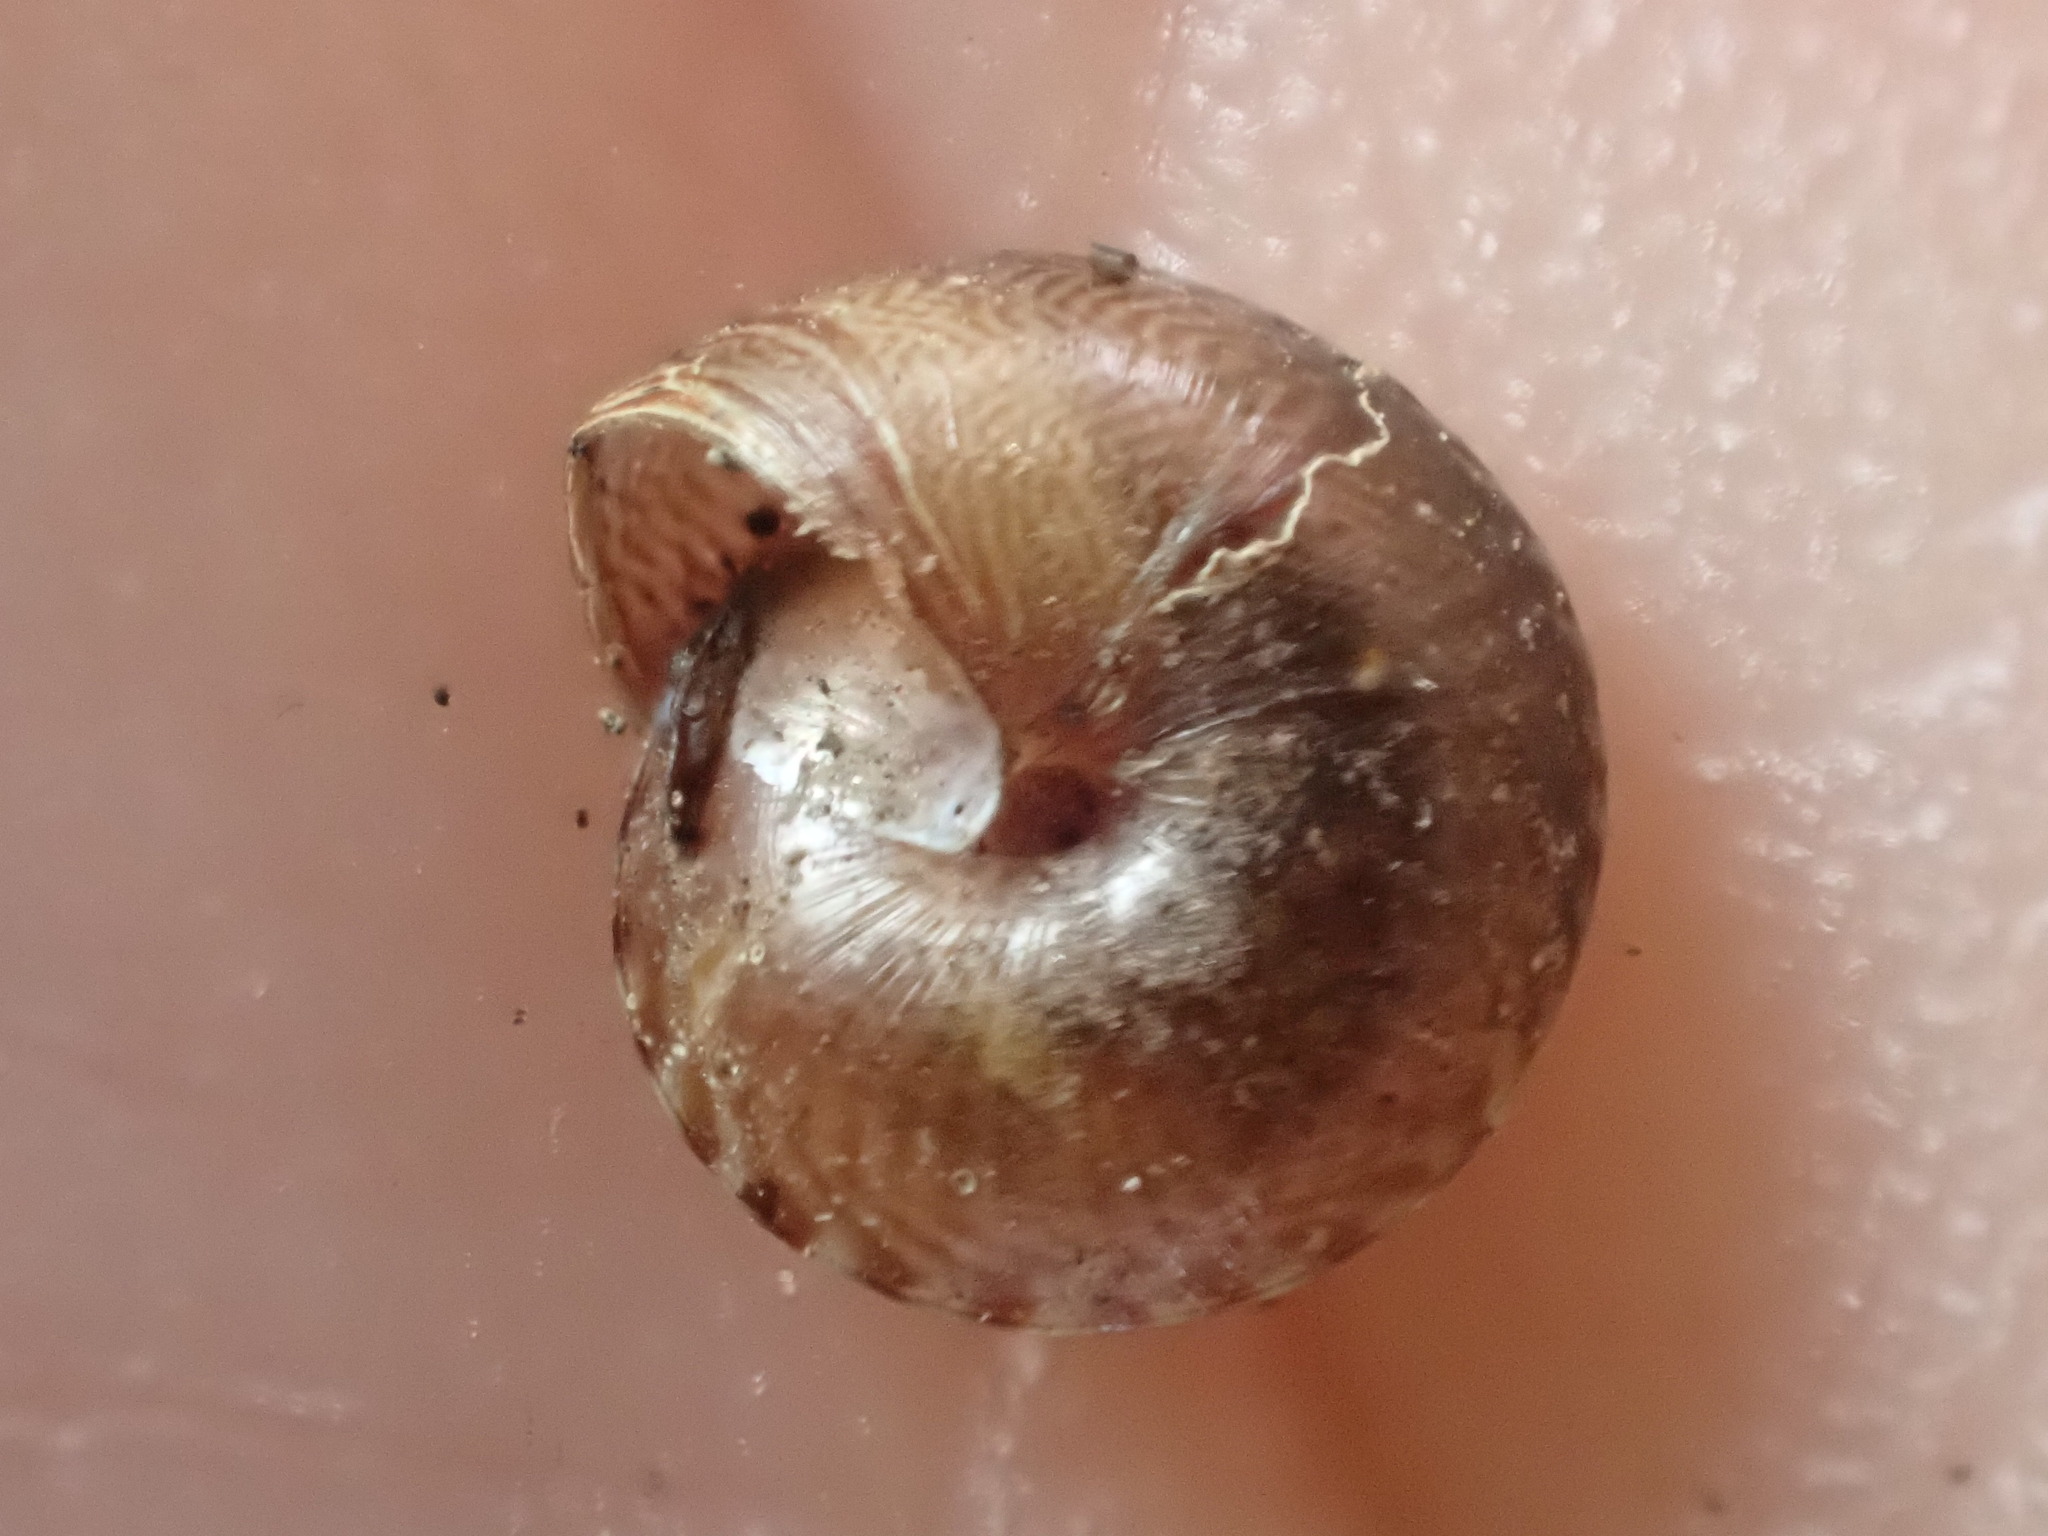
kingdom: Animalia
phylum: Mollusca
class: Gastropoda
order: Stylommatophora
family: Punctidae
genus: Laoma
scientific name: Laoma mariae
